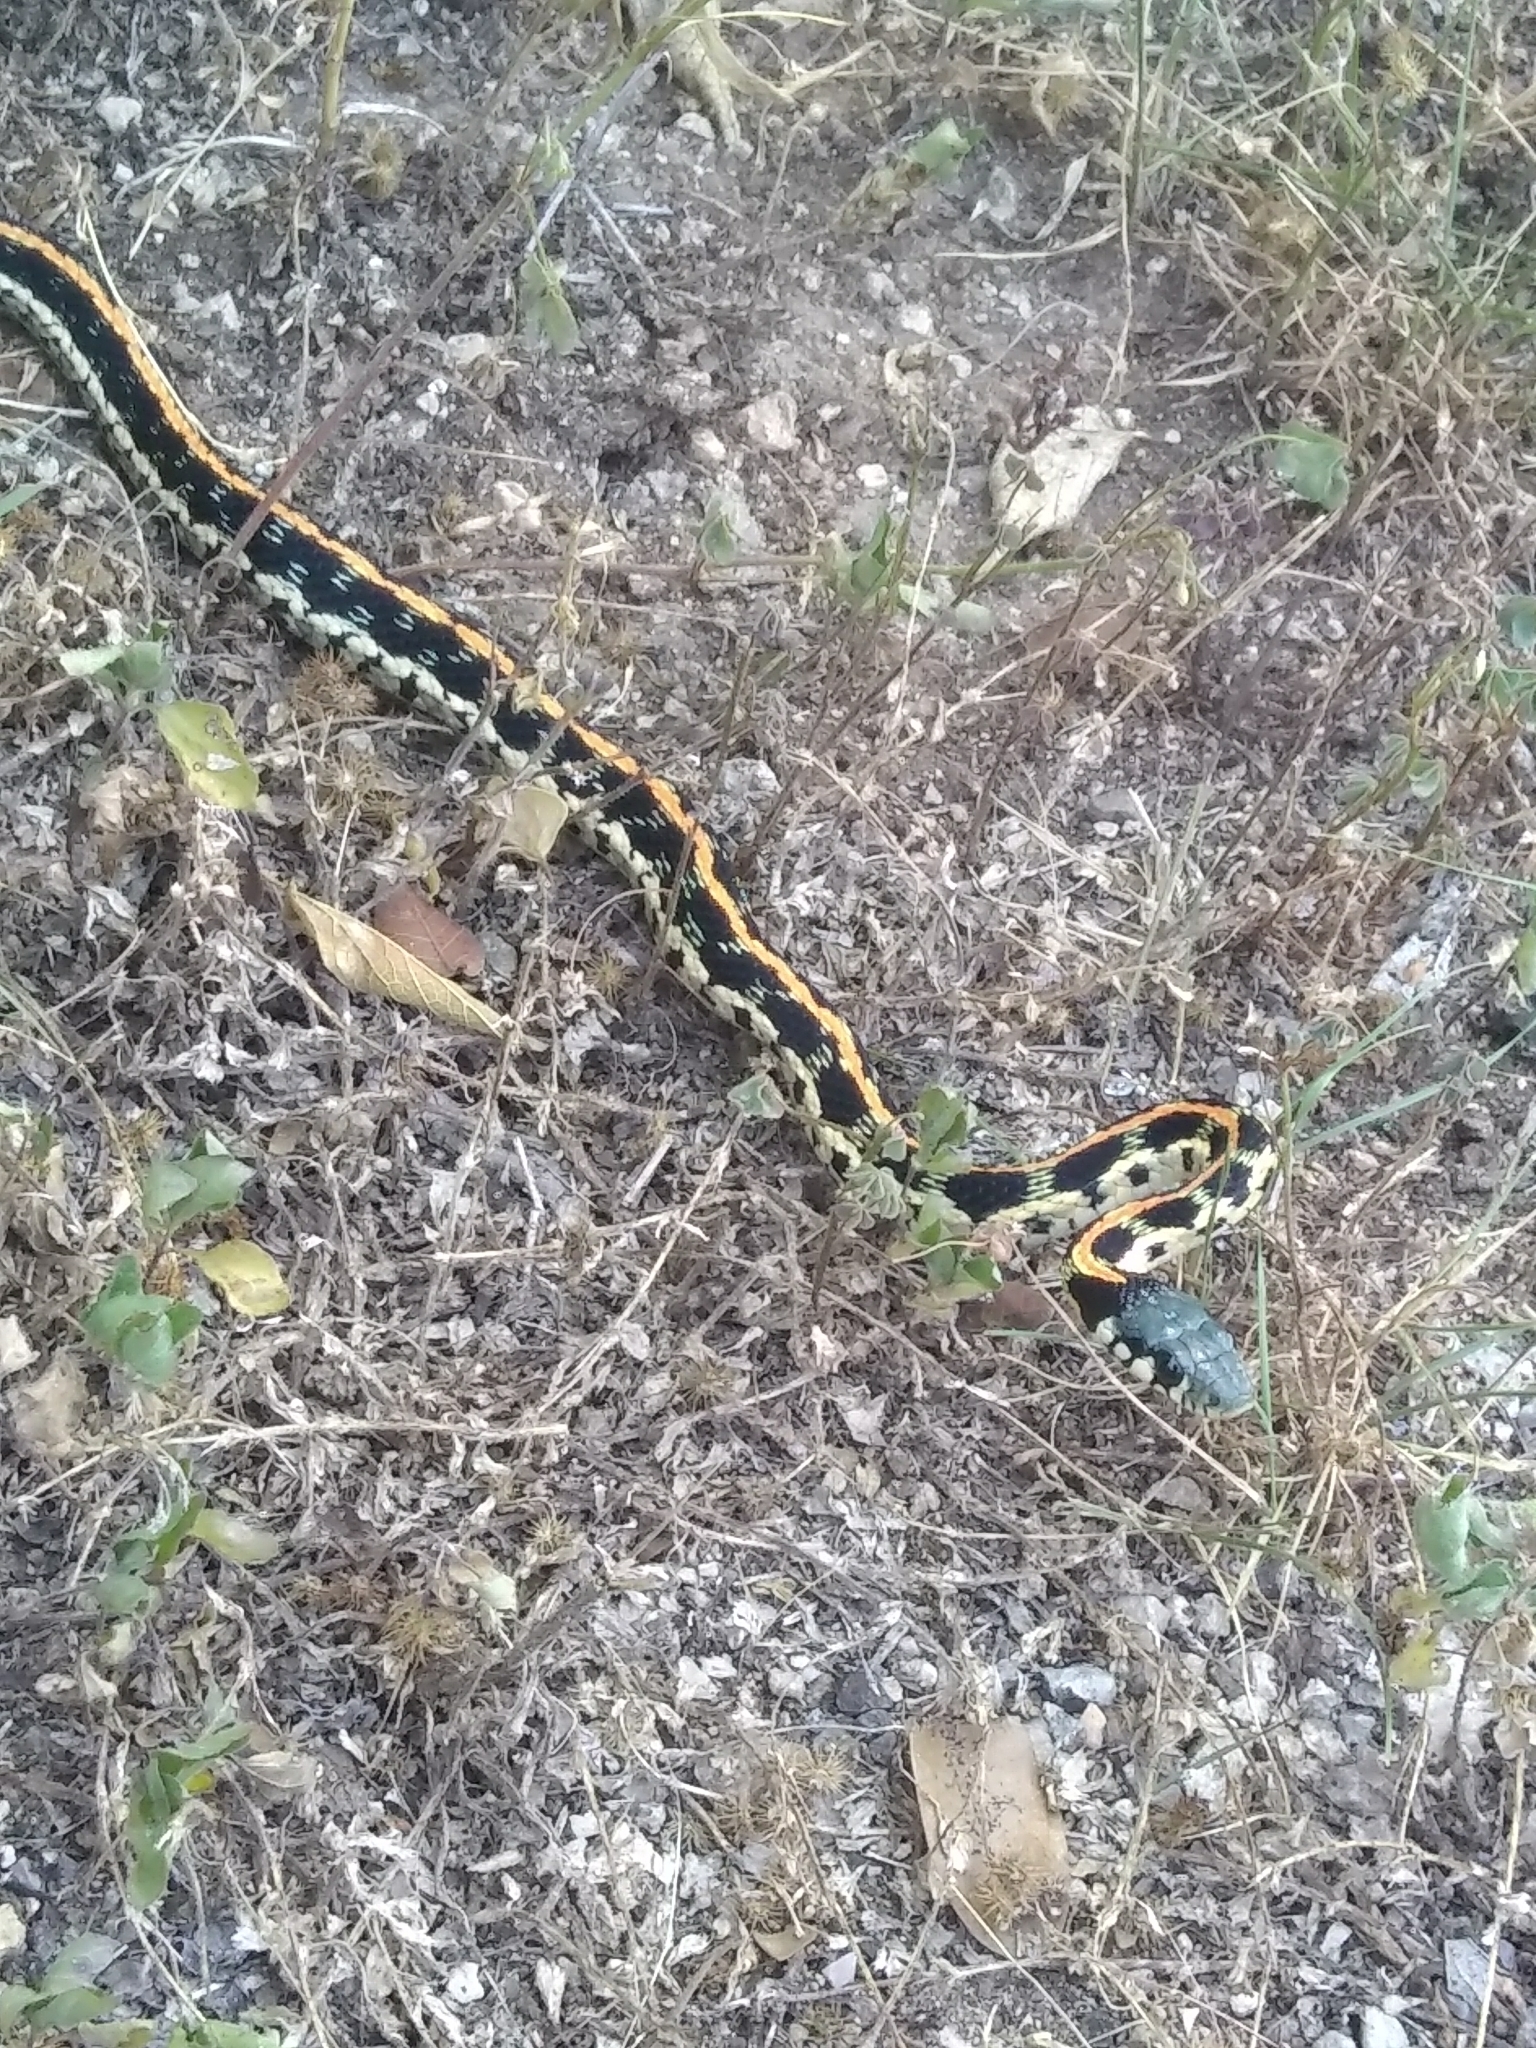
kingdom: Animalia
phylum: Chordata
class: Squamata
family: Colubridae
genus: Thamnophis
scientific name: Thamnophis cyrtopsis
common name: Black-necked gartersnake
